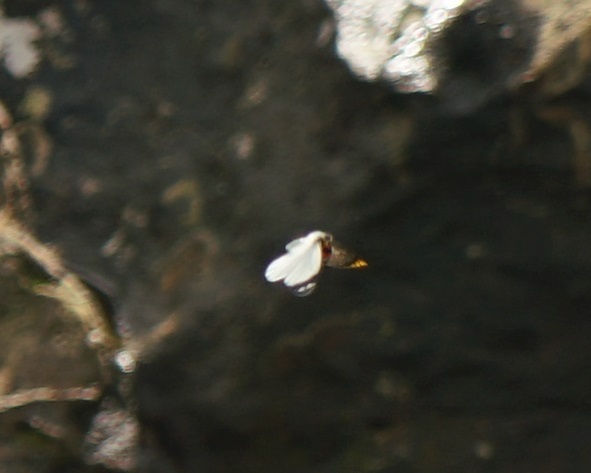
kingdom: Animalia
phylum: Arthropoda
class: Insecta
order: Lepidoptera
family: Pieridae
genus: Delias
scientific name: Delias nigrina
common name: Black jezebel
